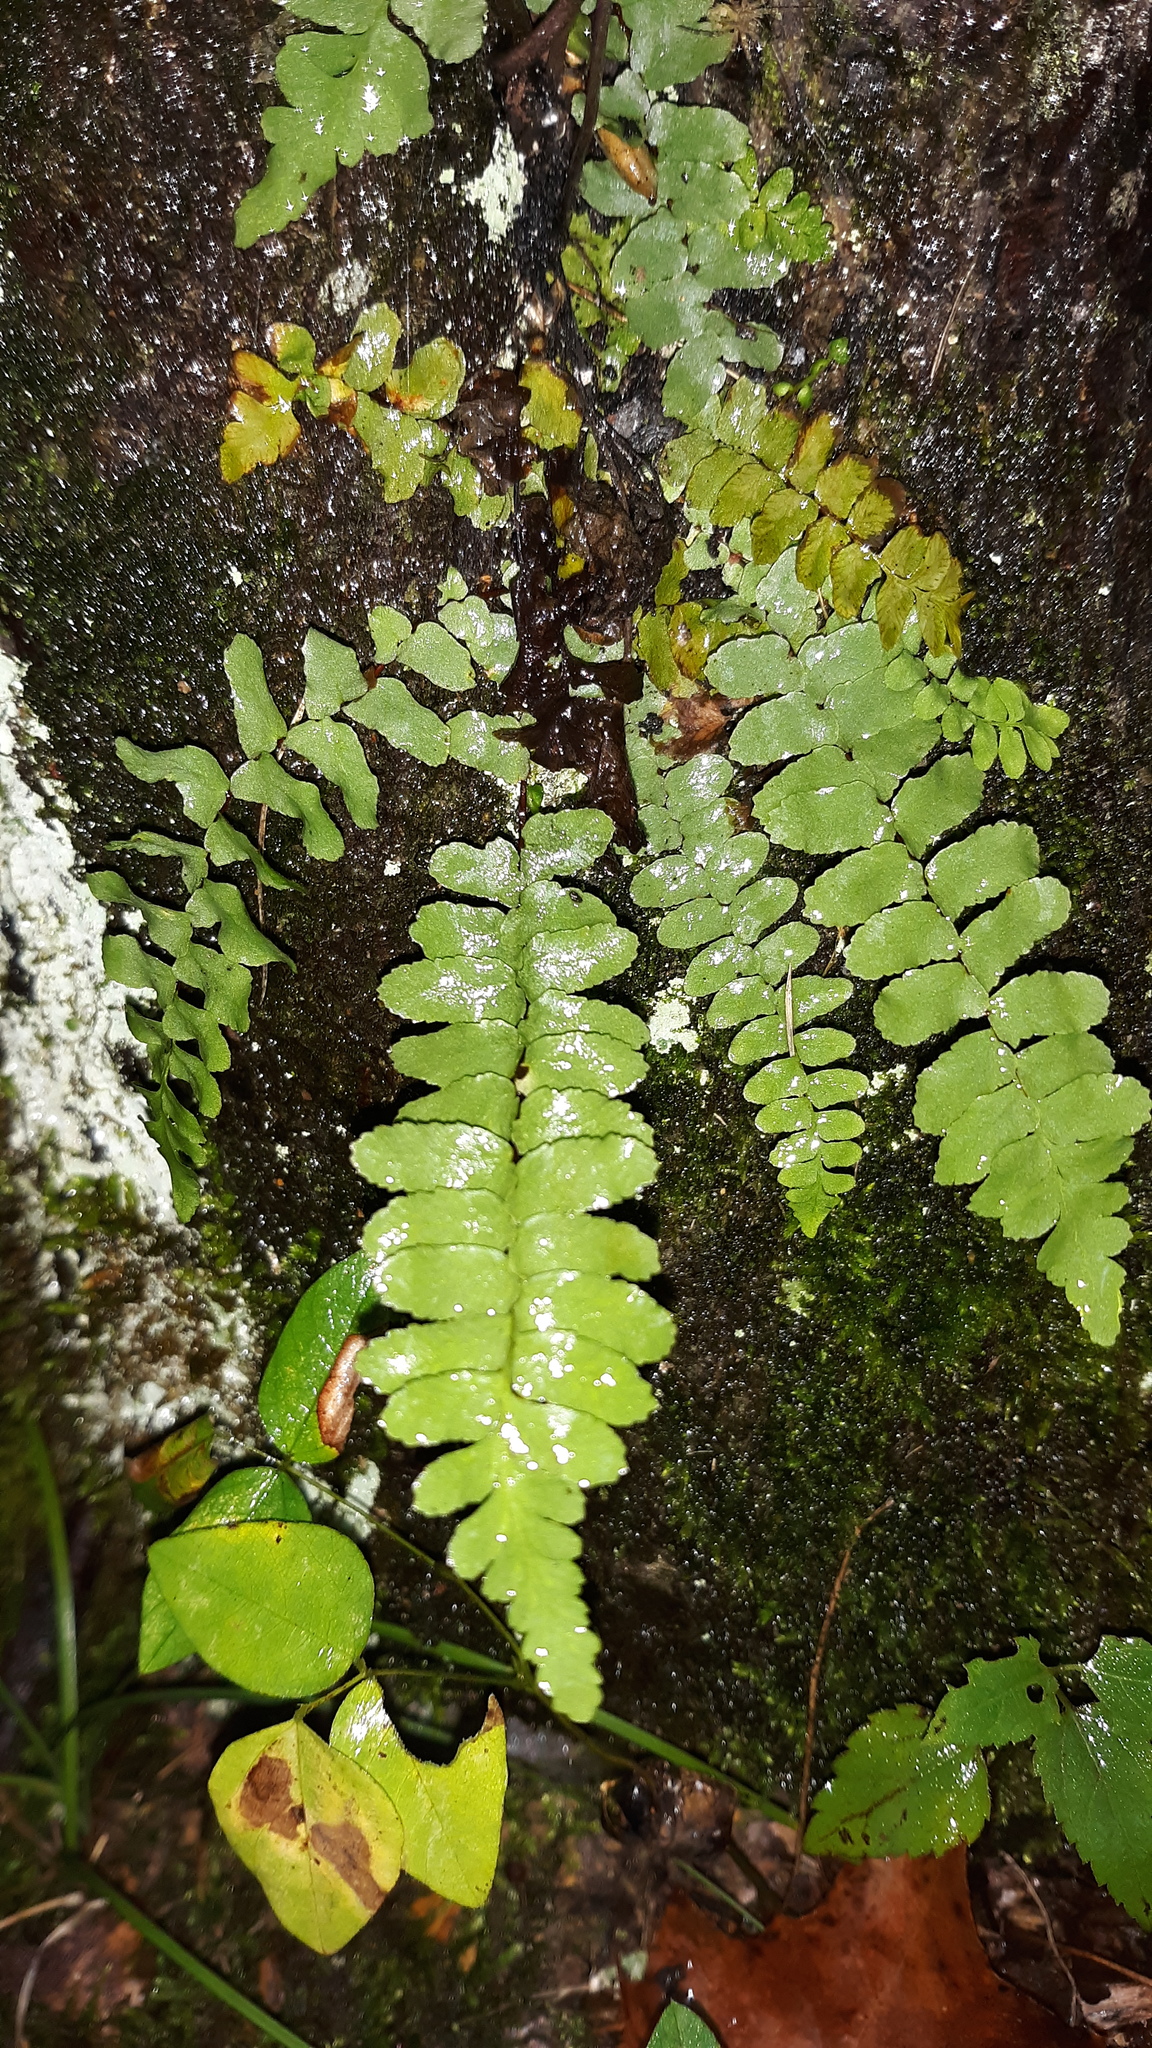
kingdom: Plantae
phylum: Tracheophyta
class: Polypodiopsida
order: Polypodiales
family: Aspleniaceae
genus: Asplenium
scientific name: Asplenium platyneuron
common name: Ebony spleenwort
